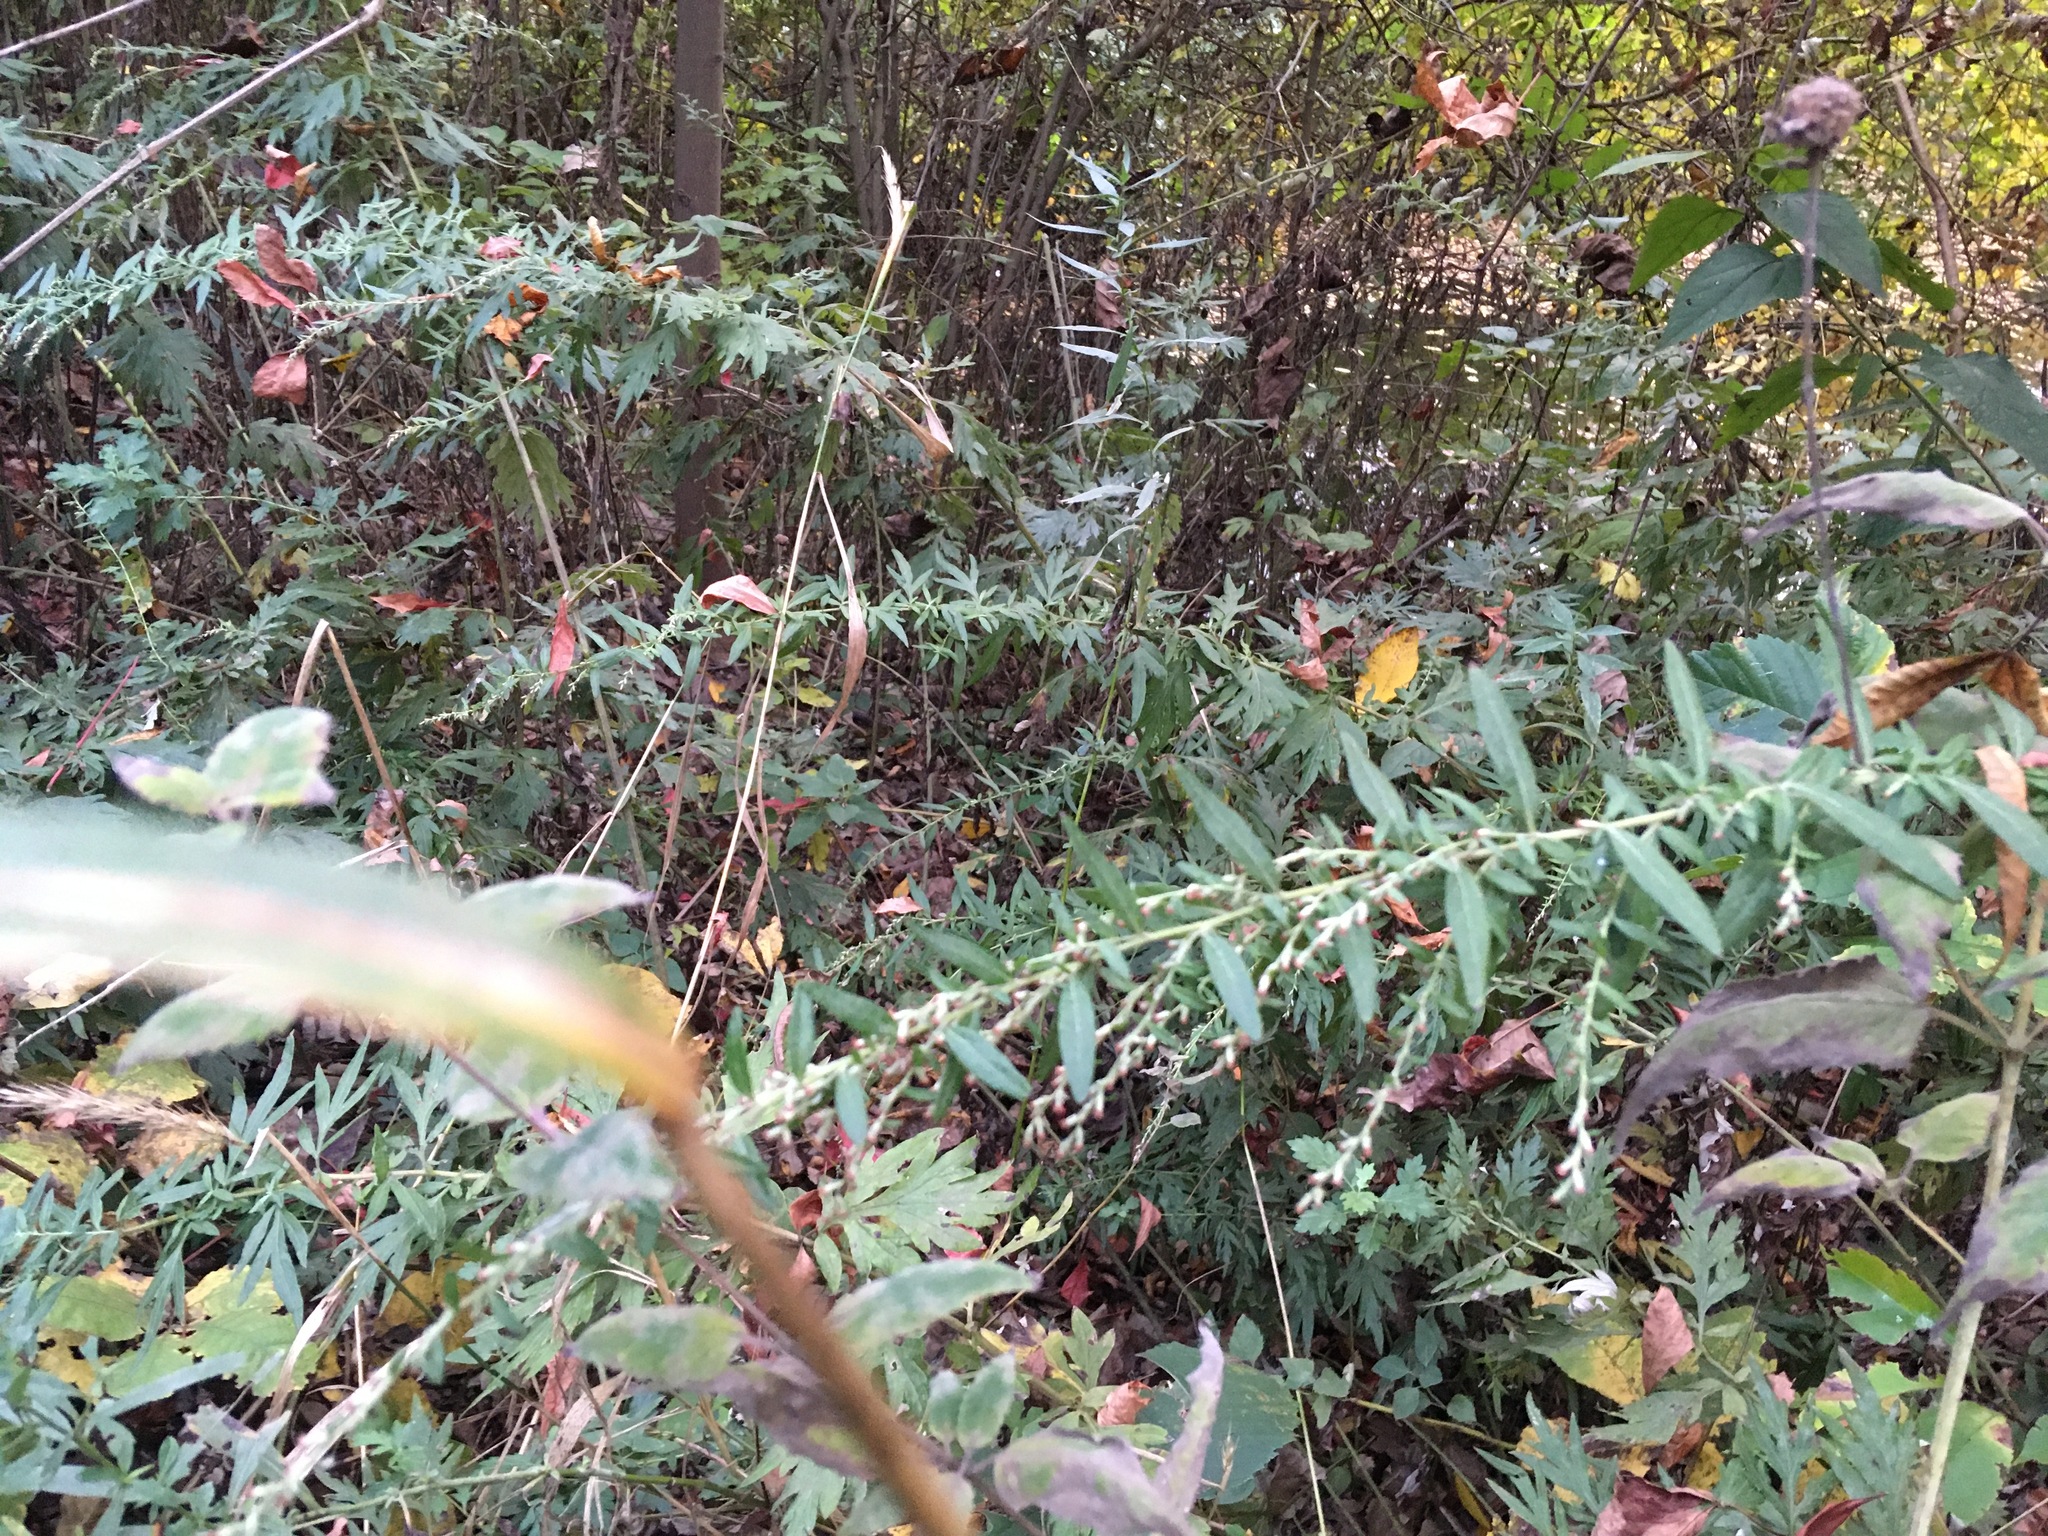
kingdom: Plantae
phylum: Tracheophyta
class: Magnoliopsida
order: Asterales
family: Asteraceae
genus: Artemisia
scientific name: Artemisia vulgaris
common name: Mugwort
